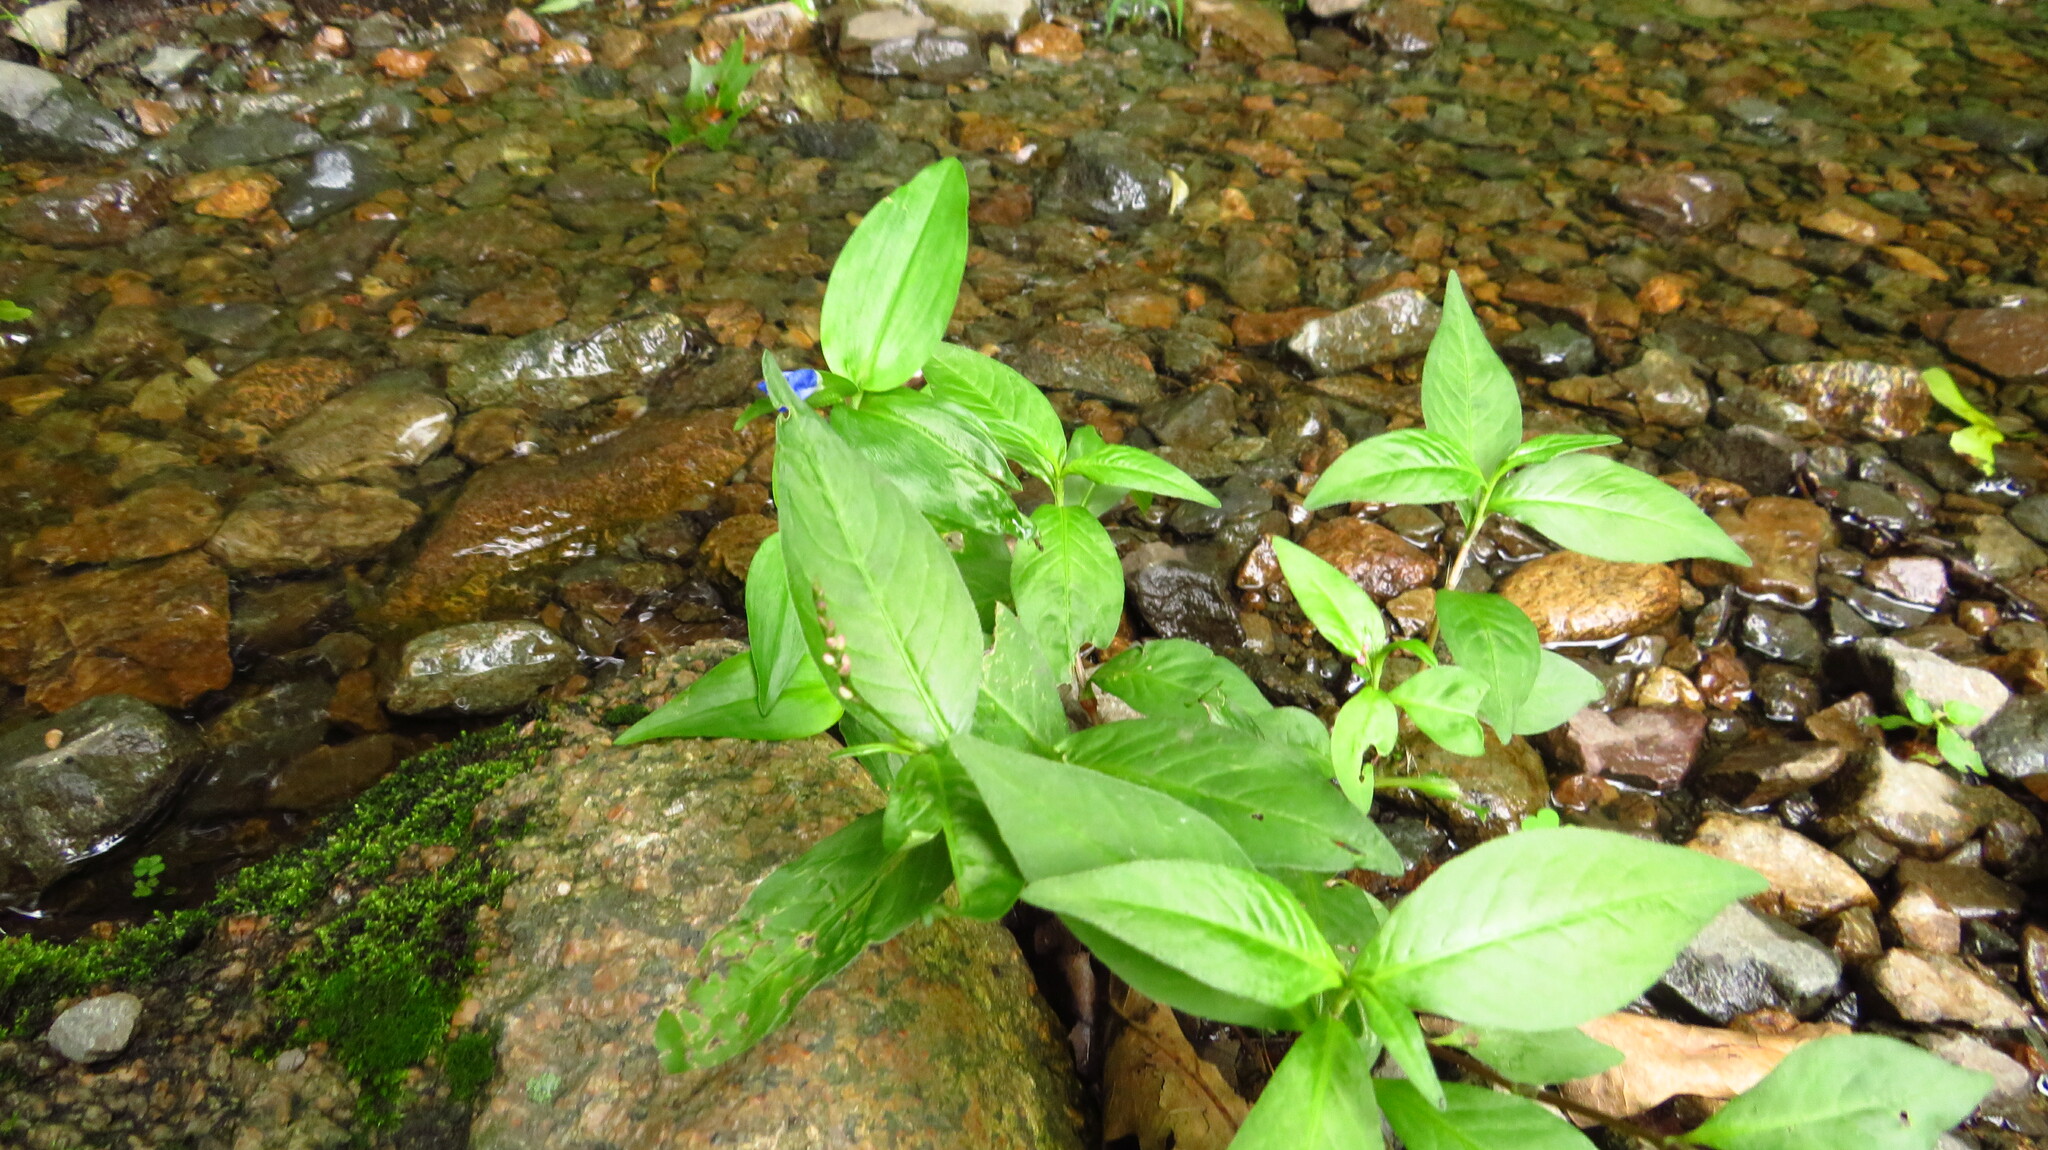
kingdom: Plantae
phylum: Tracheophyta
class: Liliopsida
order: Commelinales
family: Commelinaceae
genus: Commelina
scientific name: Commelina communis
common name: Asiatic dayflower
